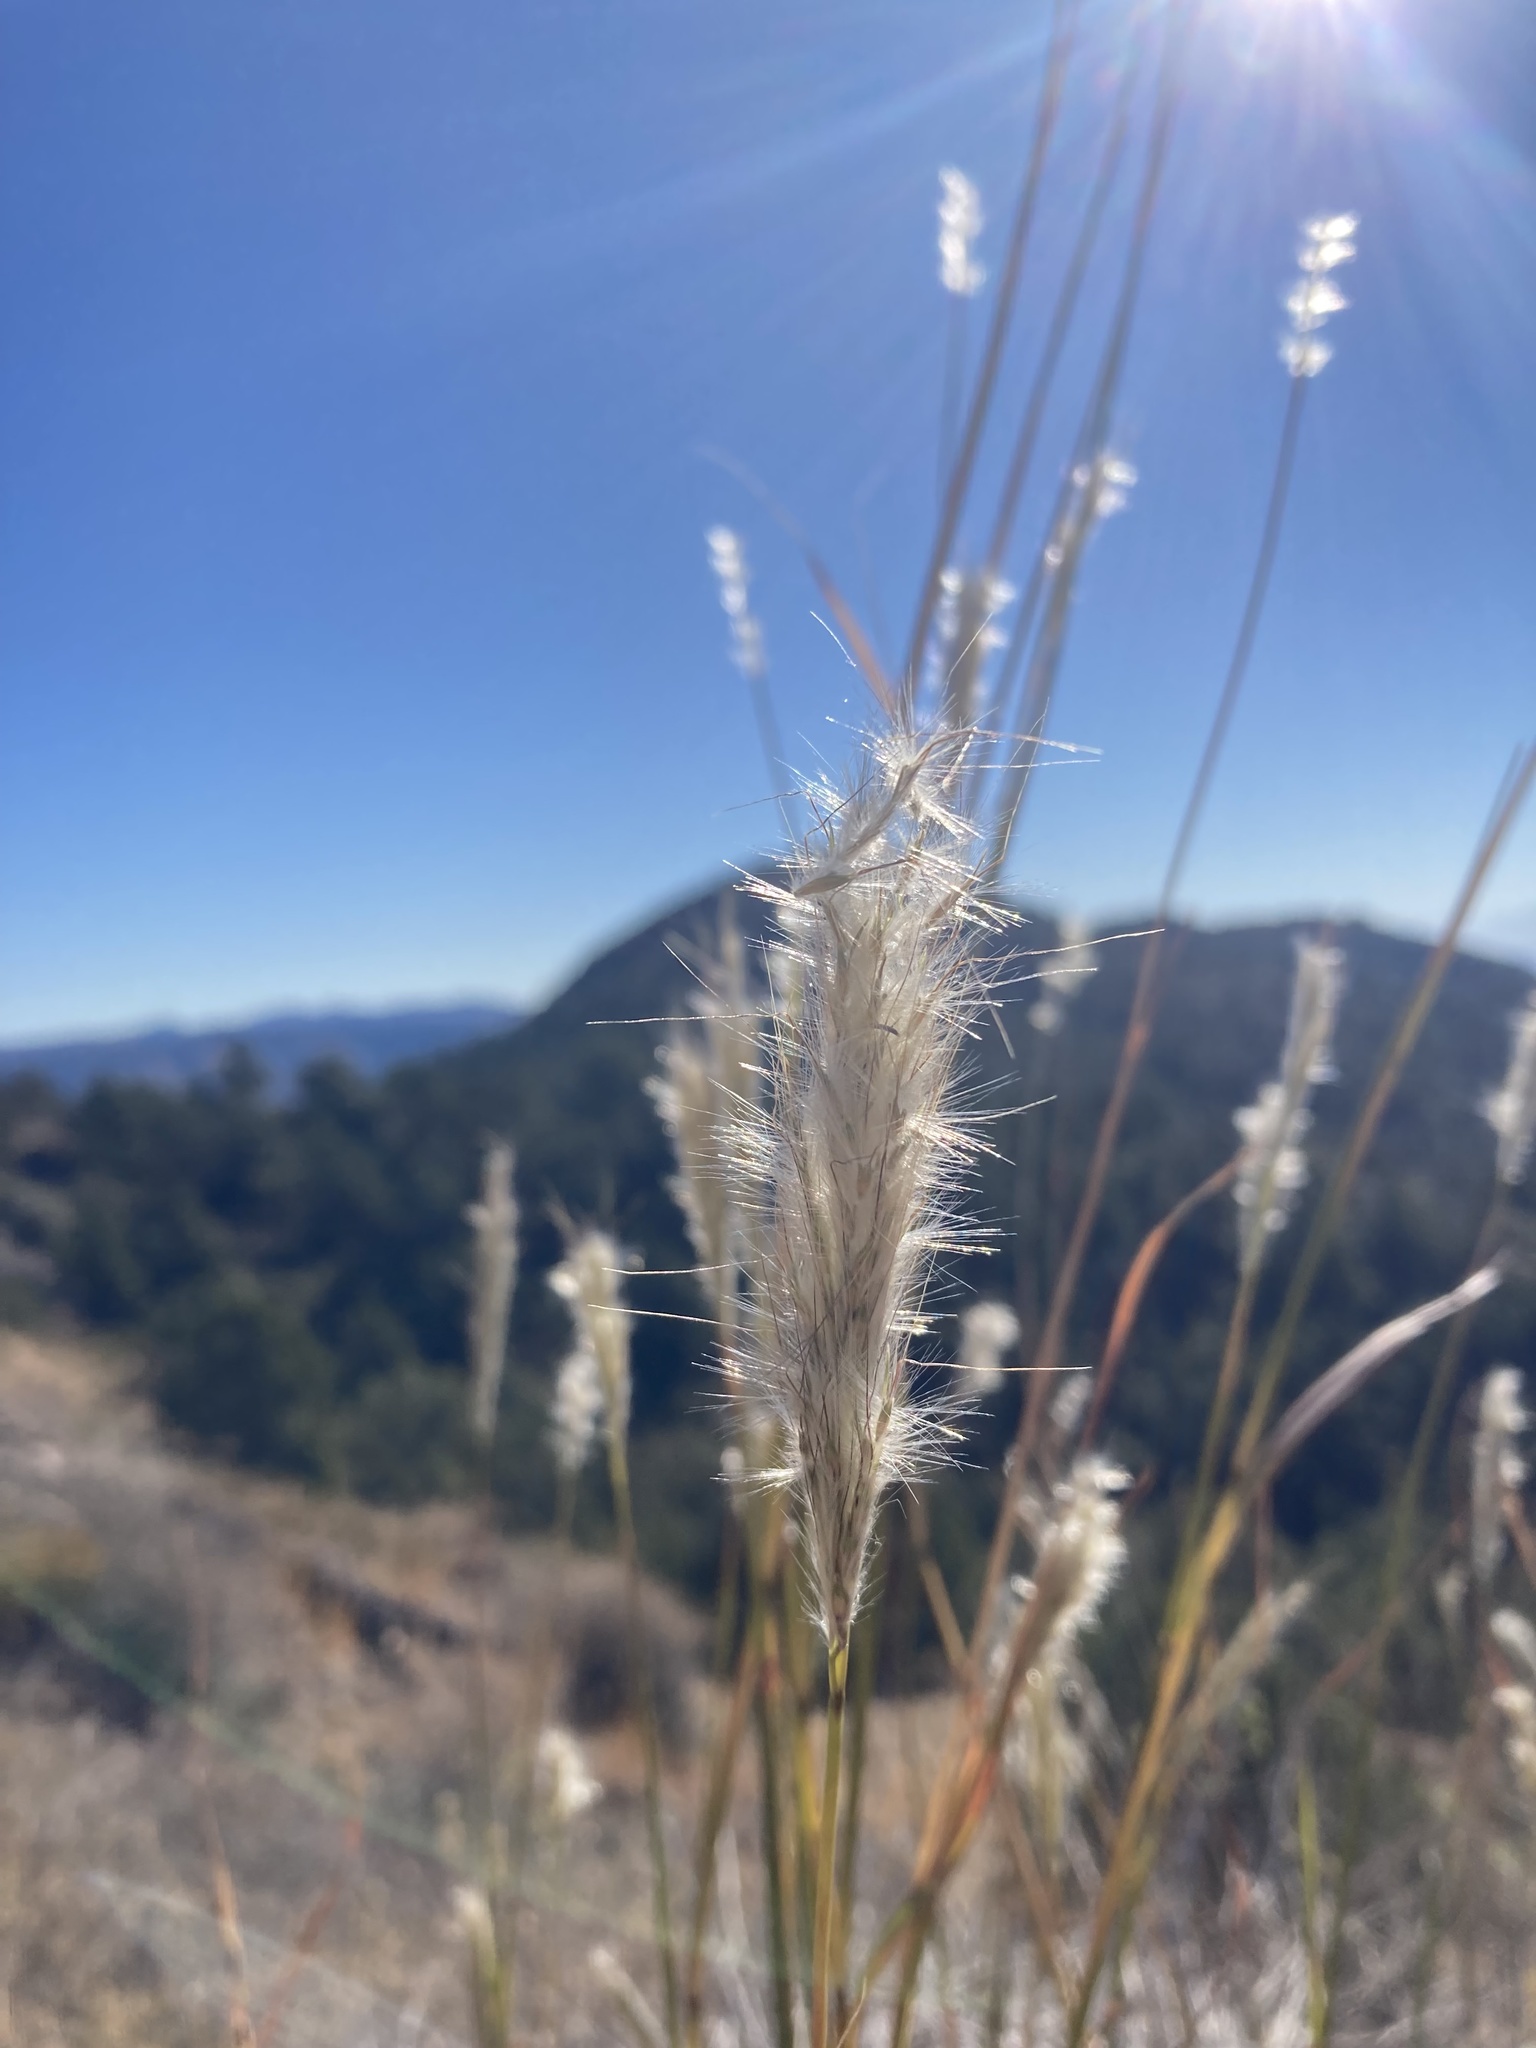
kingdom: Plantae
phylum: Tracheophyta
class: Liliopsida
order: Poales
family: Poaceae
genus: Bothriochloa
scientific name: Bothriochloa barbinodis
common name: Cane bluestem
